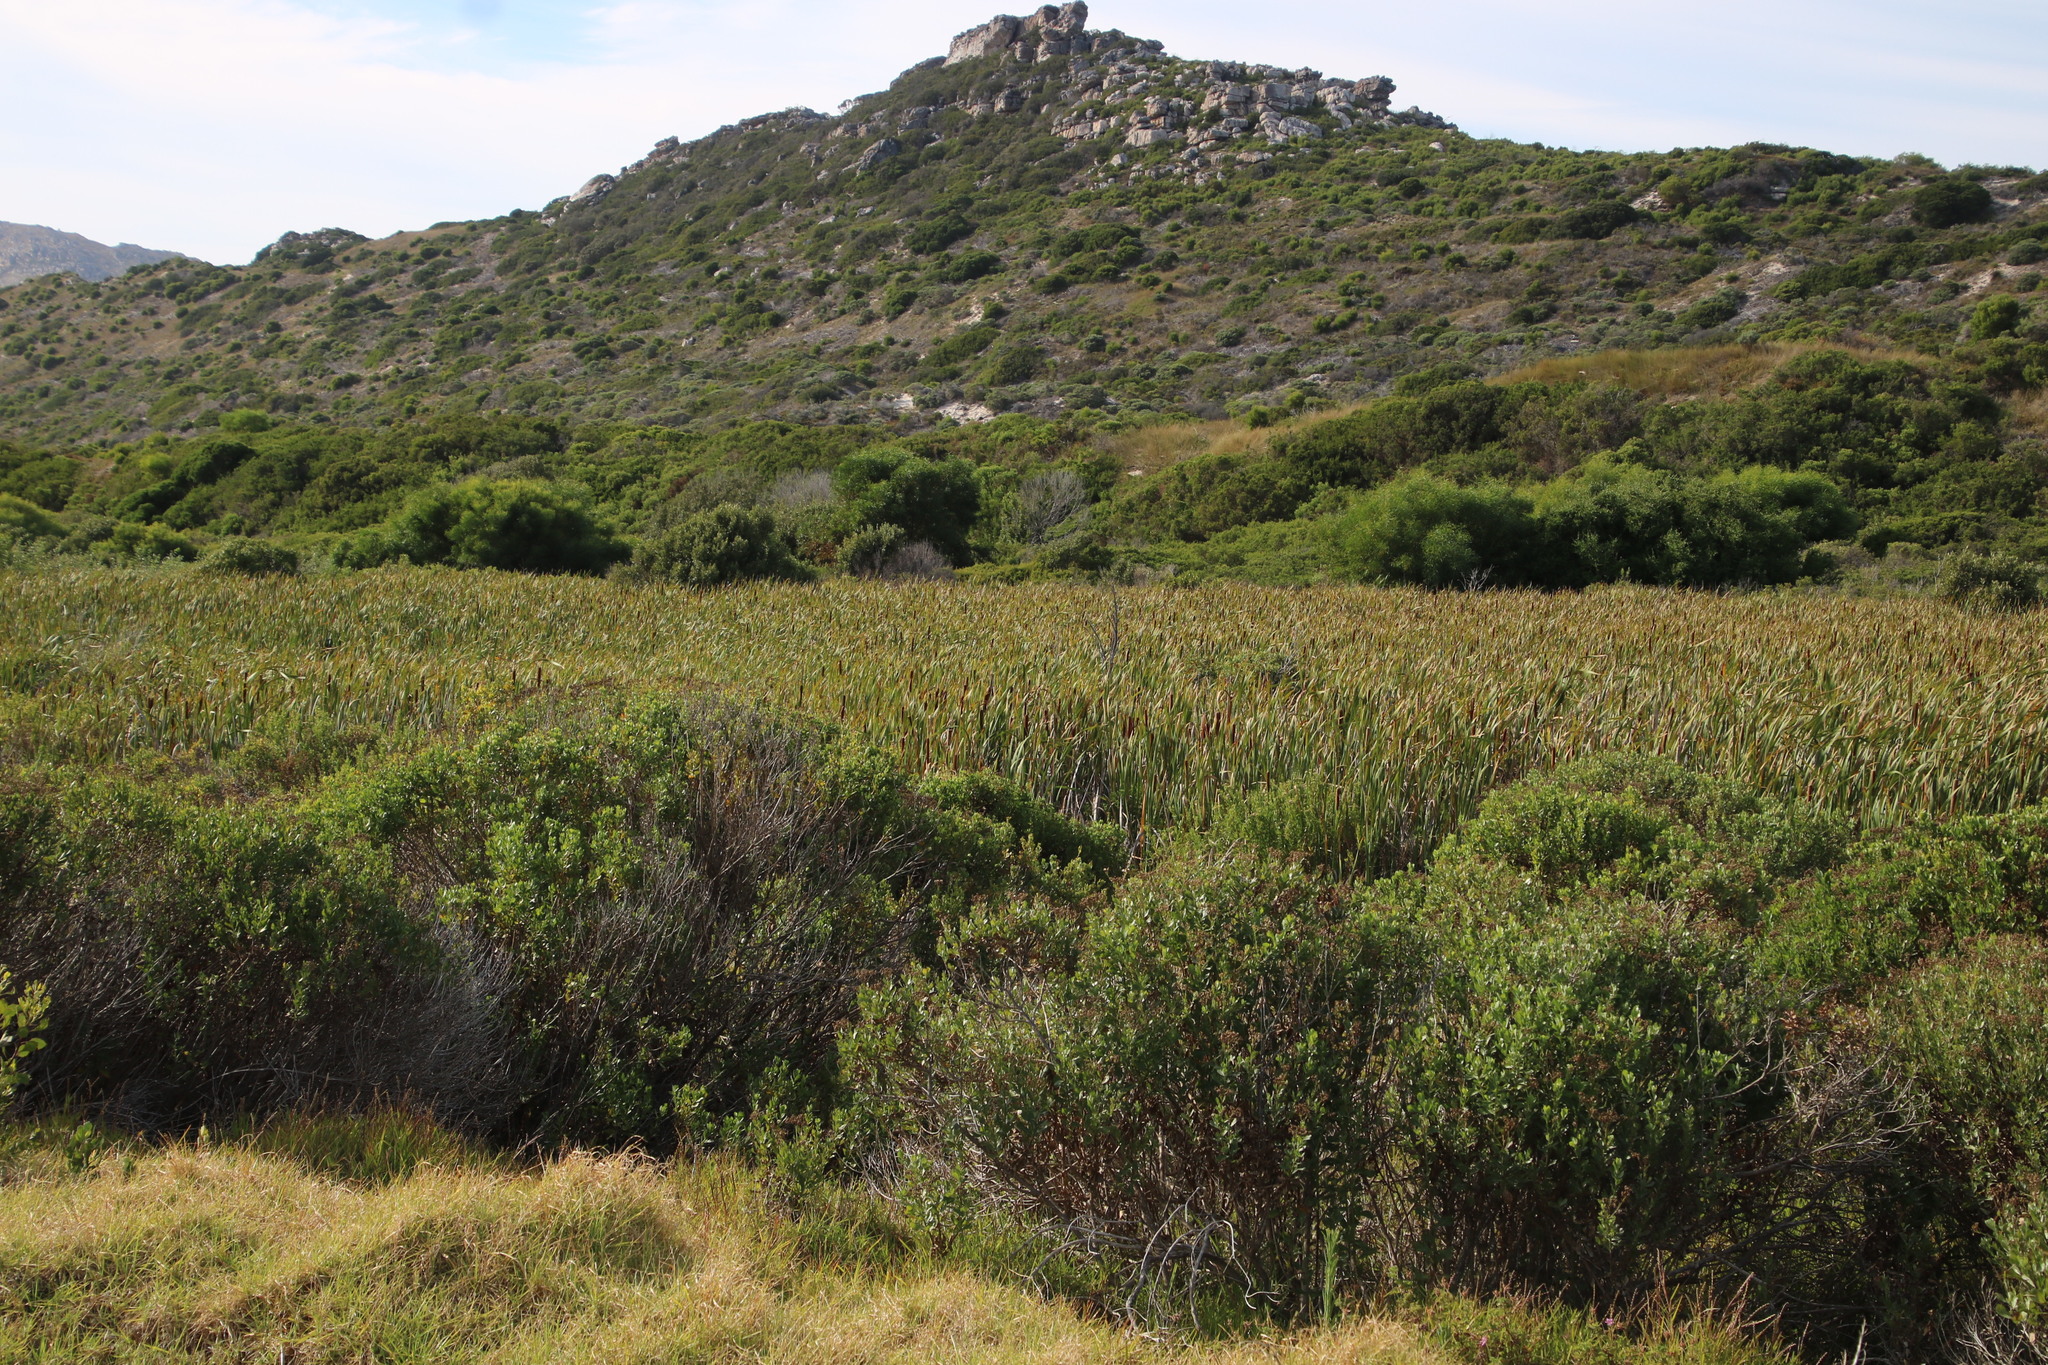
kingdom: Plantae
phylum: Tracheophyta
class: Liliopsida
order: Poales
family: Typhaceae
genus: Typha
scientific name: Typha capensis
